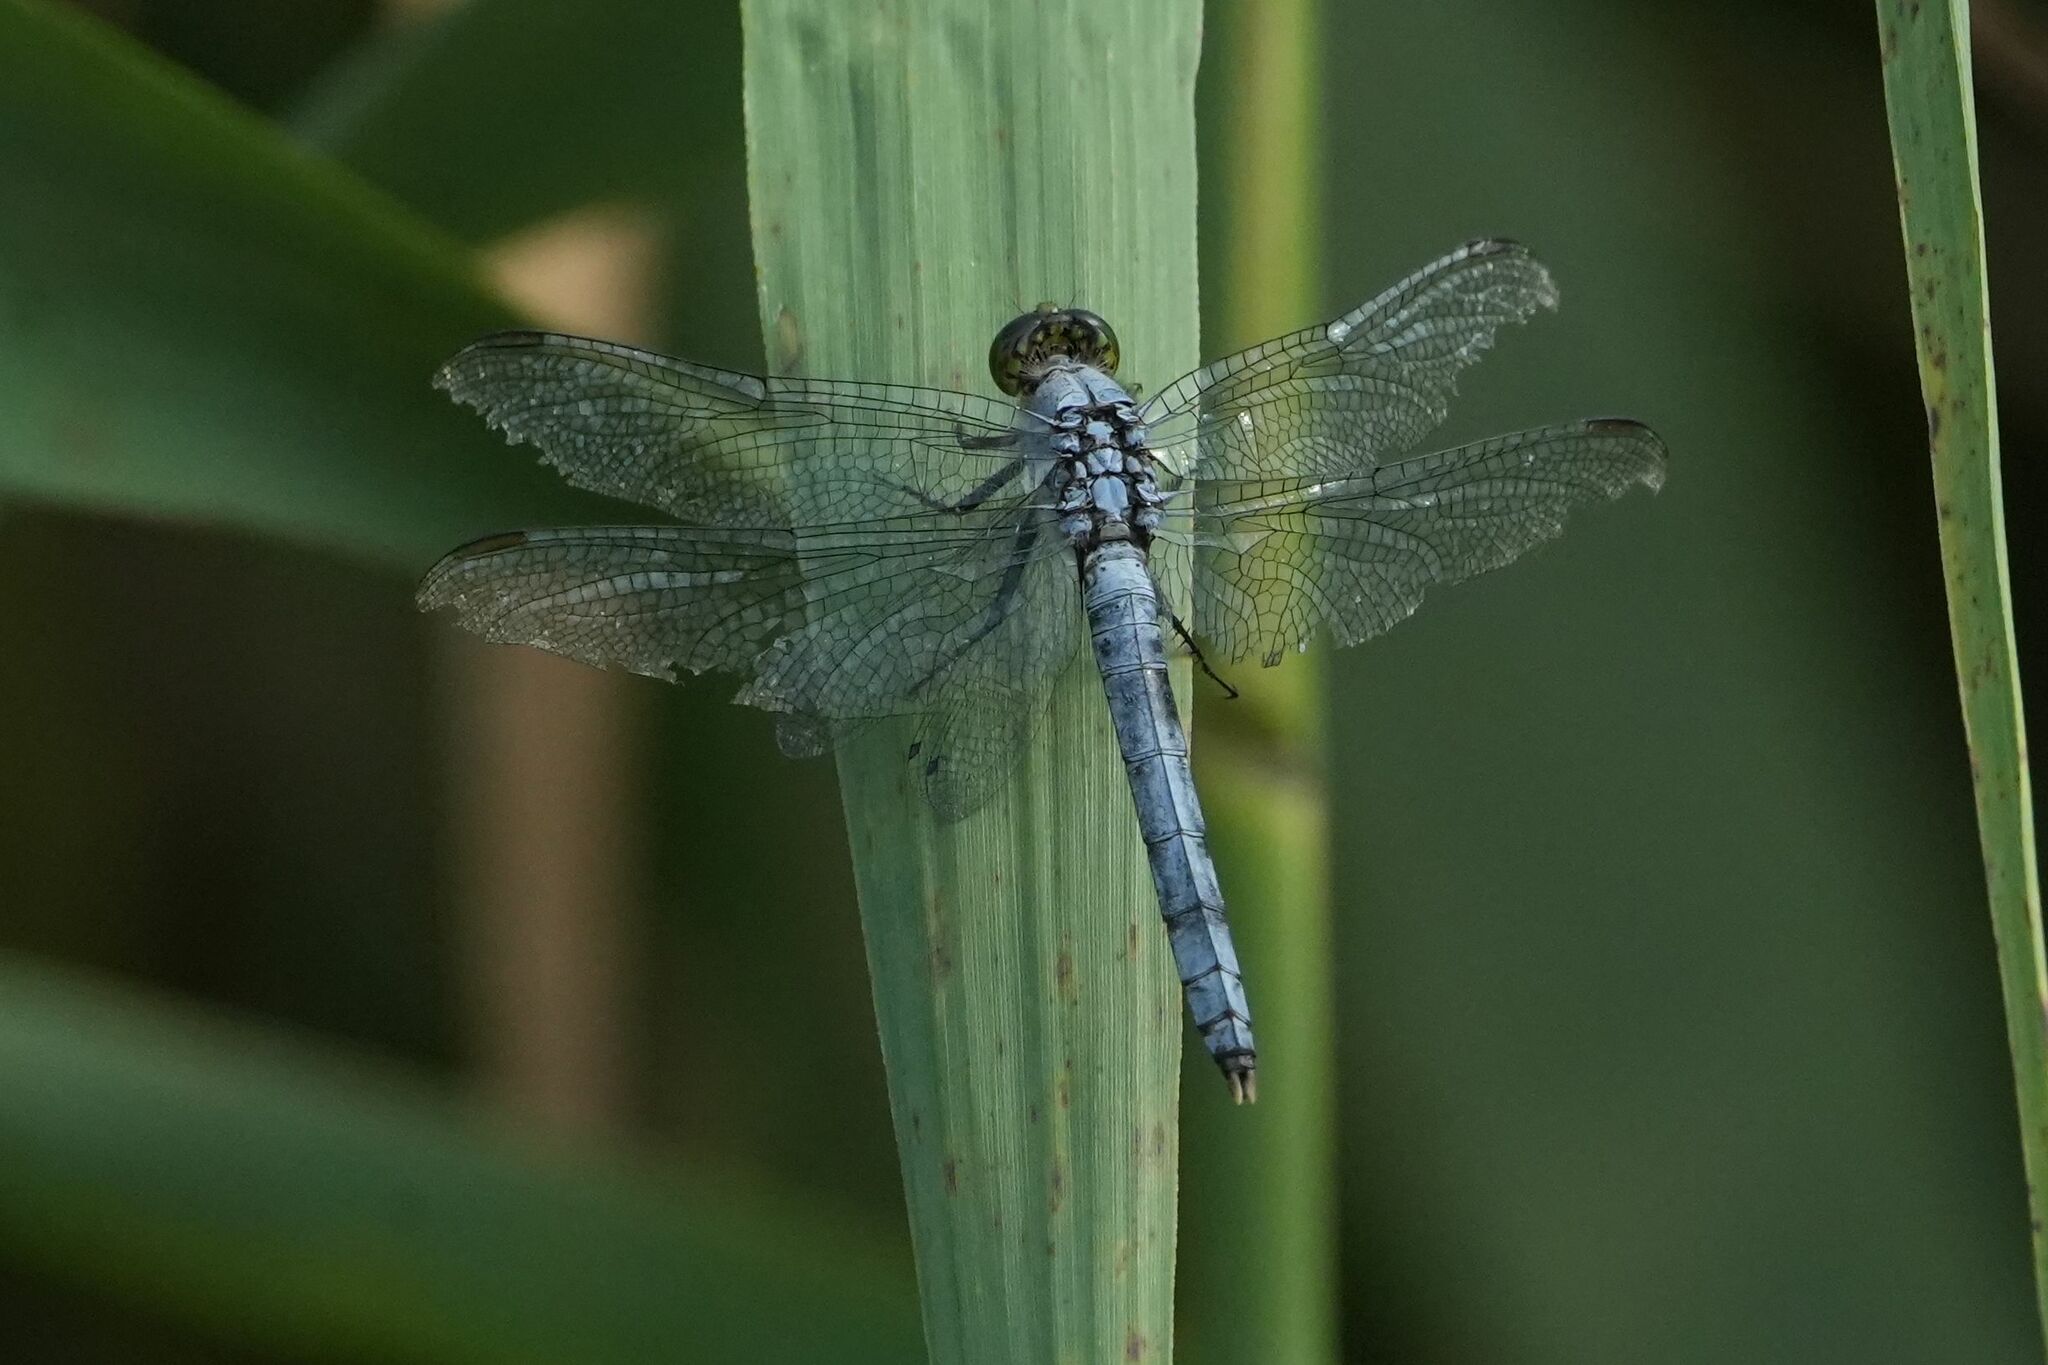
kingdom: Animalia
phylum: Arthropoda
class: Insecta
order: Odonata
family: Libellulidae
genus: Erythemis
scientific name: Erythemis simplicicollis
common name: Eastern pondhawk
